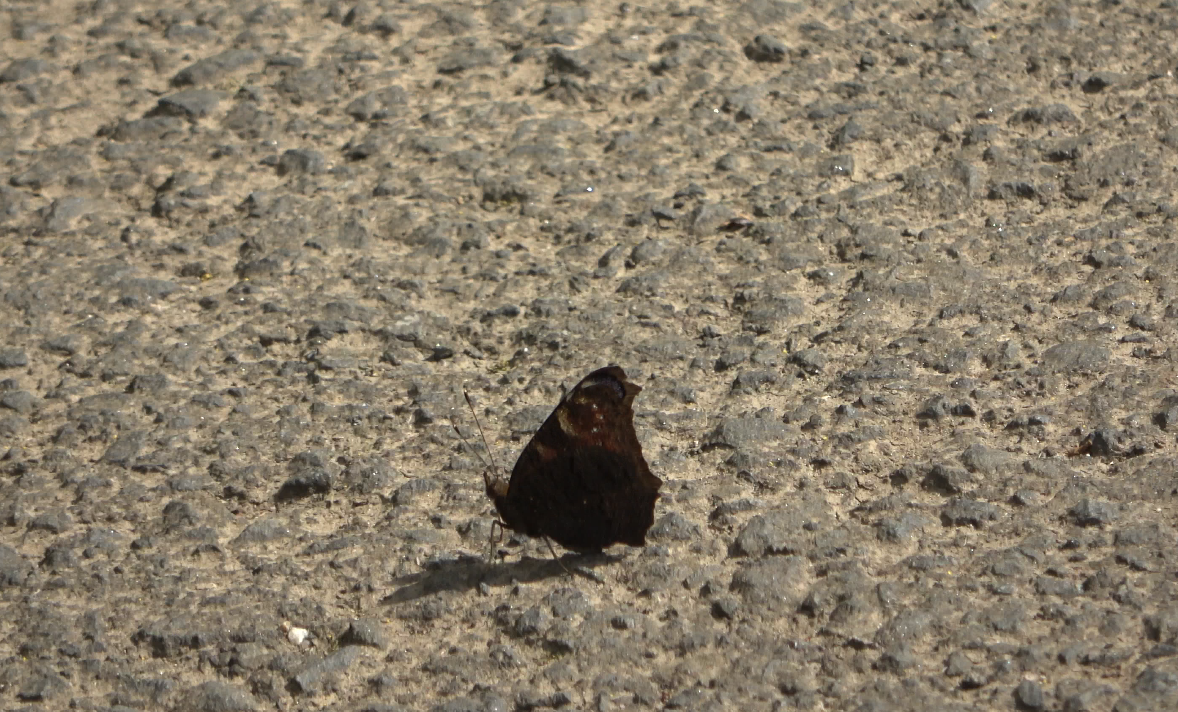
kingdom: Animalia
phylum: Arthropoda
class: Insecta
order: Lepidoptera
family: Nymphalidae
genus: Aglais
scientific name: Aglais io
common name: Peacock
